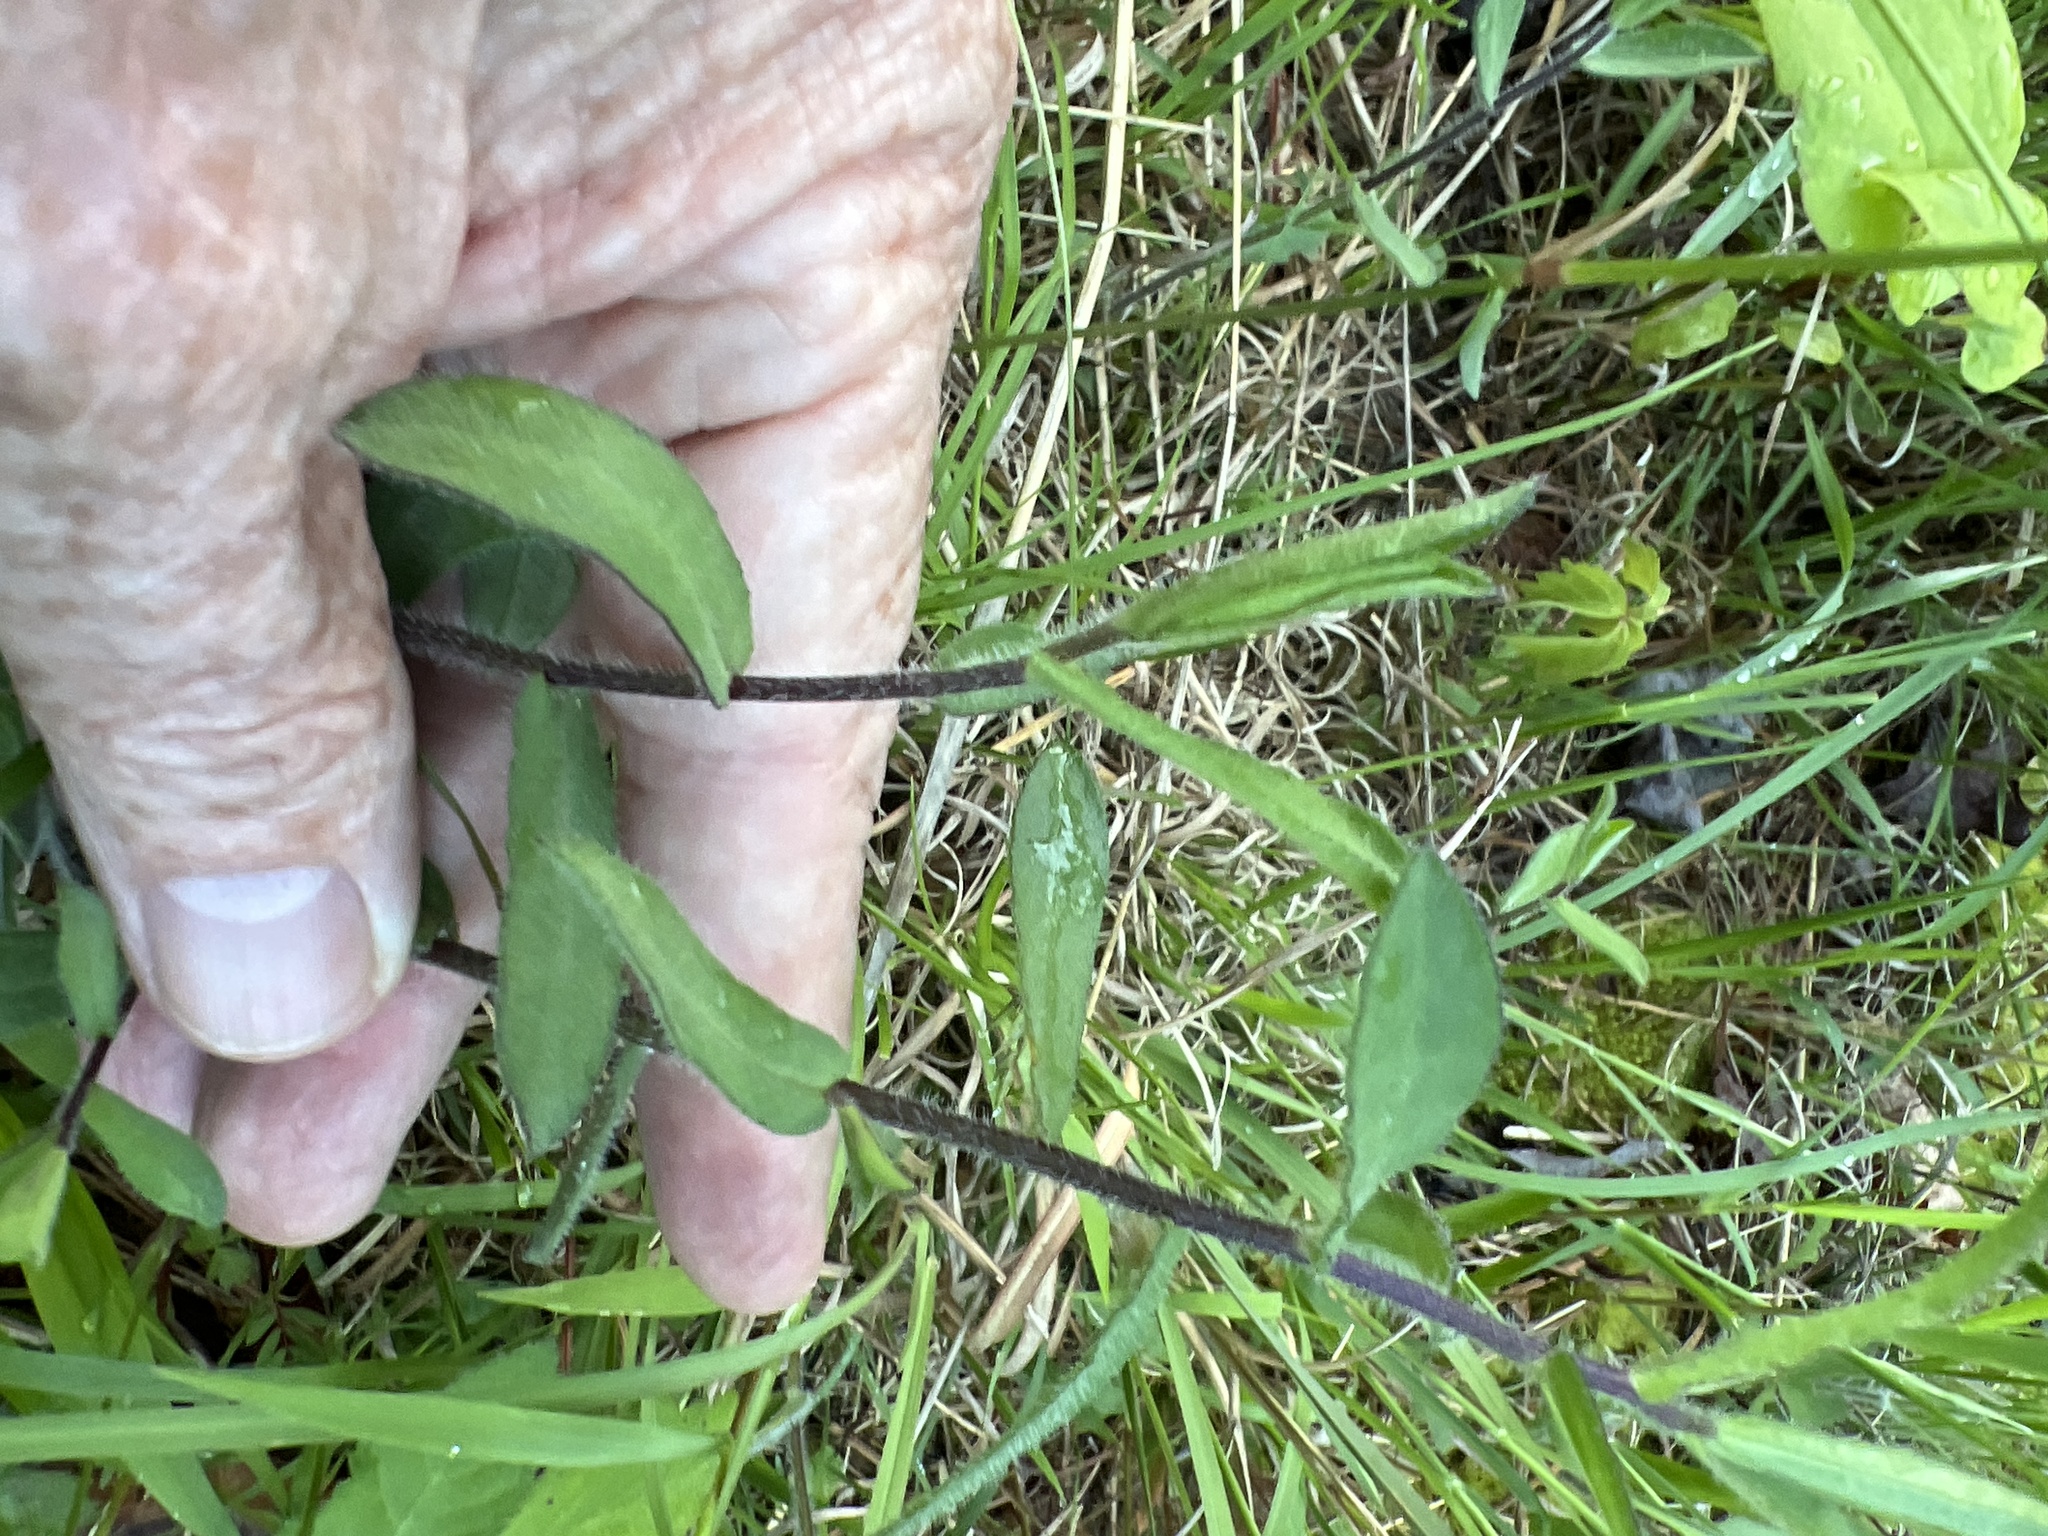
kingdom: Plantae
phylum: Tracheophyta
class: Magnoliopsida
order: Asterales
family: Asteraceae
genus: Symphyotrichum
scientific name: Symphyotrichum grandiflorum
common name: Big-head aster
